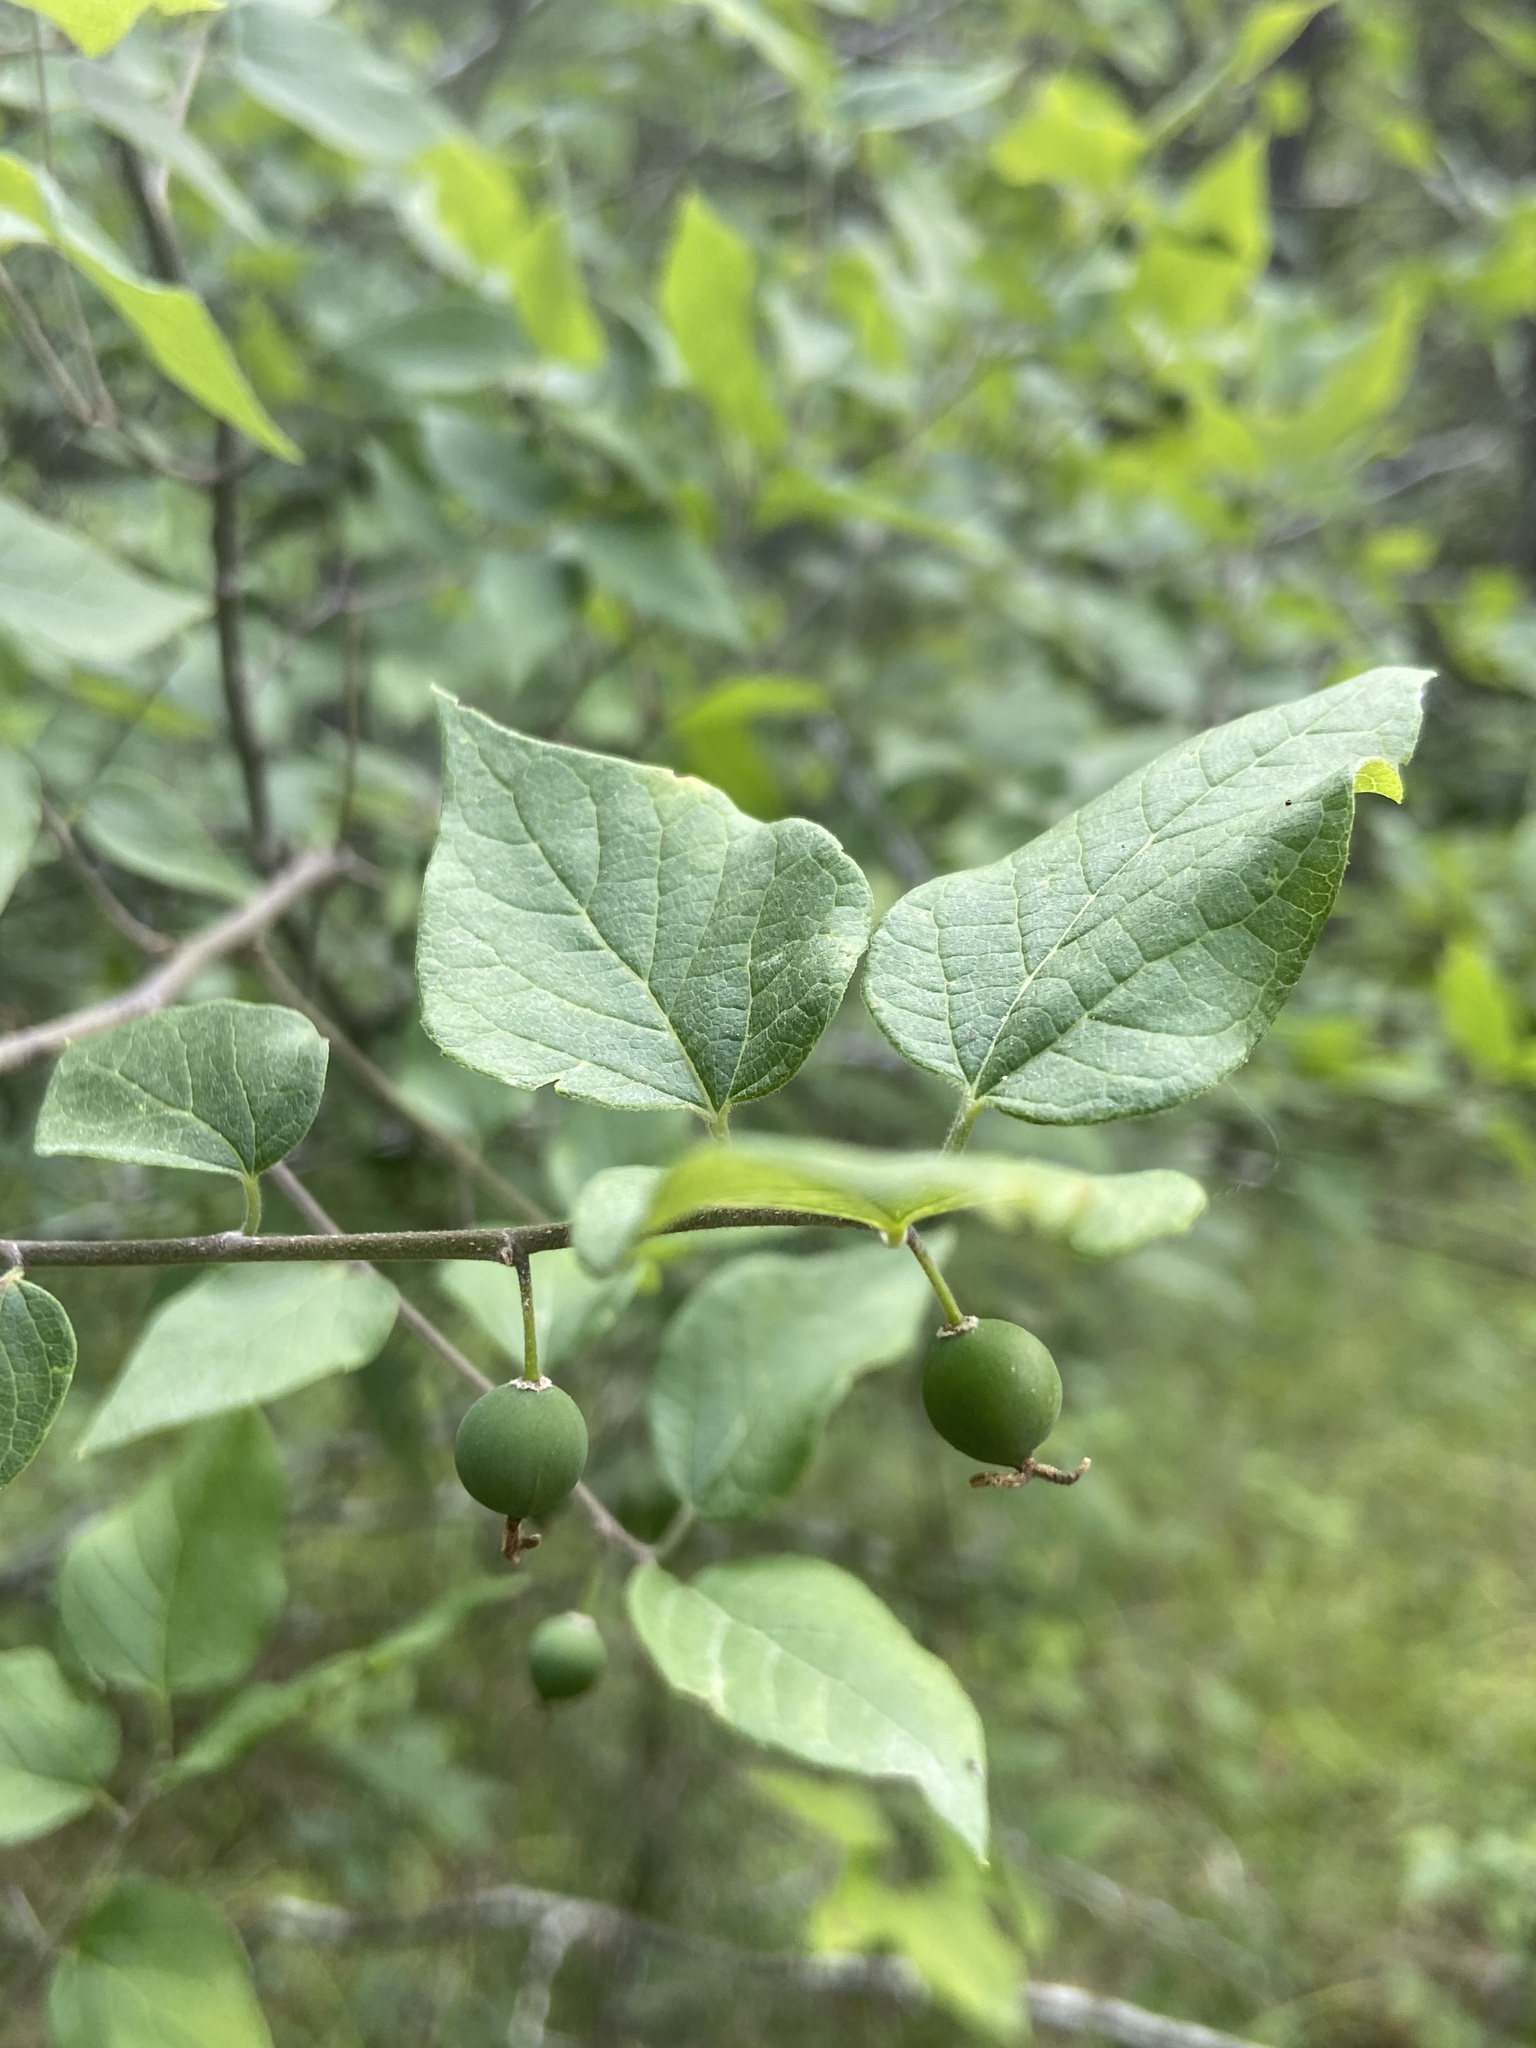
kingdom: Plantae
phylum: Tracheophyta
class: Magnoliopsida
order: Rosales
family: Cannabaceae
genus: Celtis
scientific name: Celtis tenuifolia
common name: Georgia hackberry
